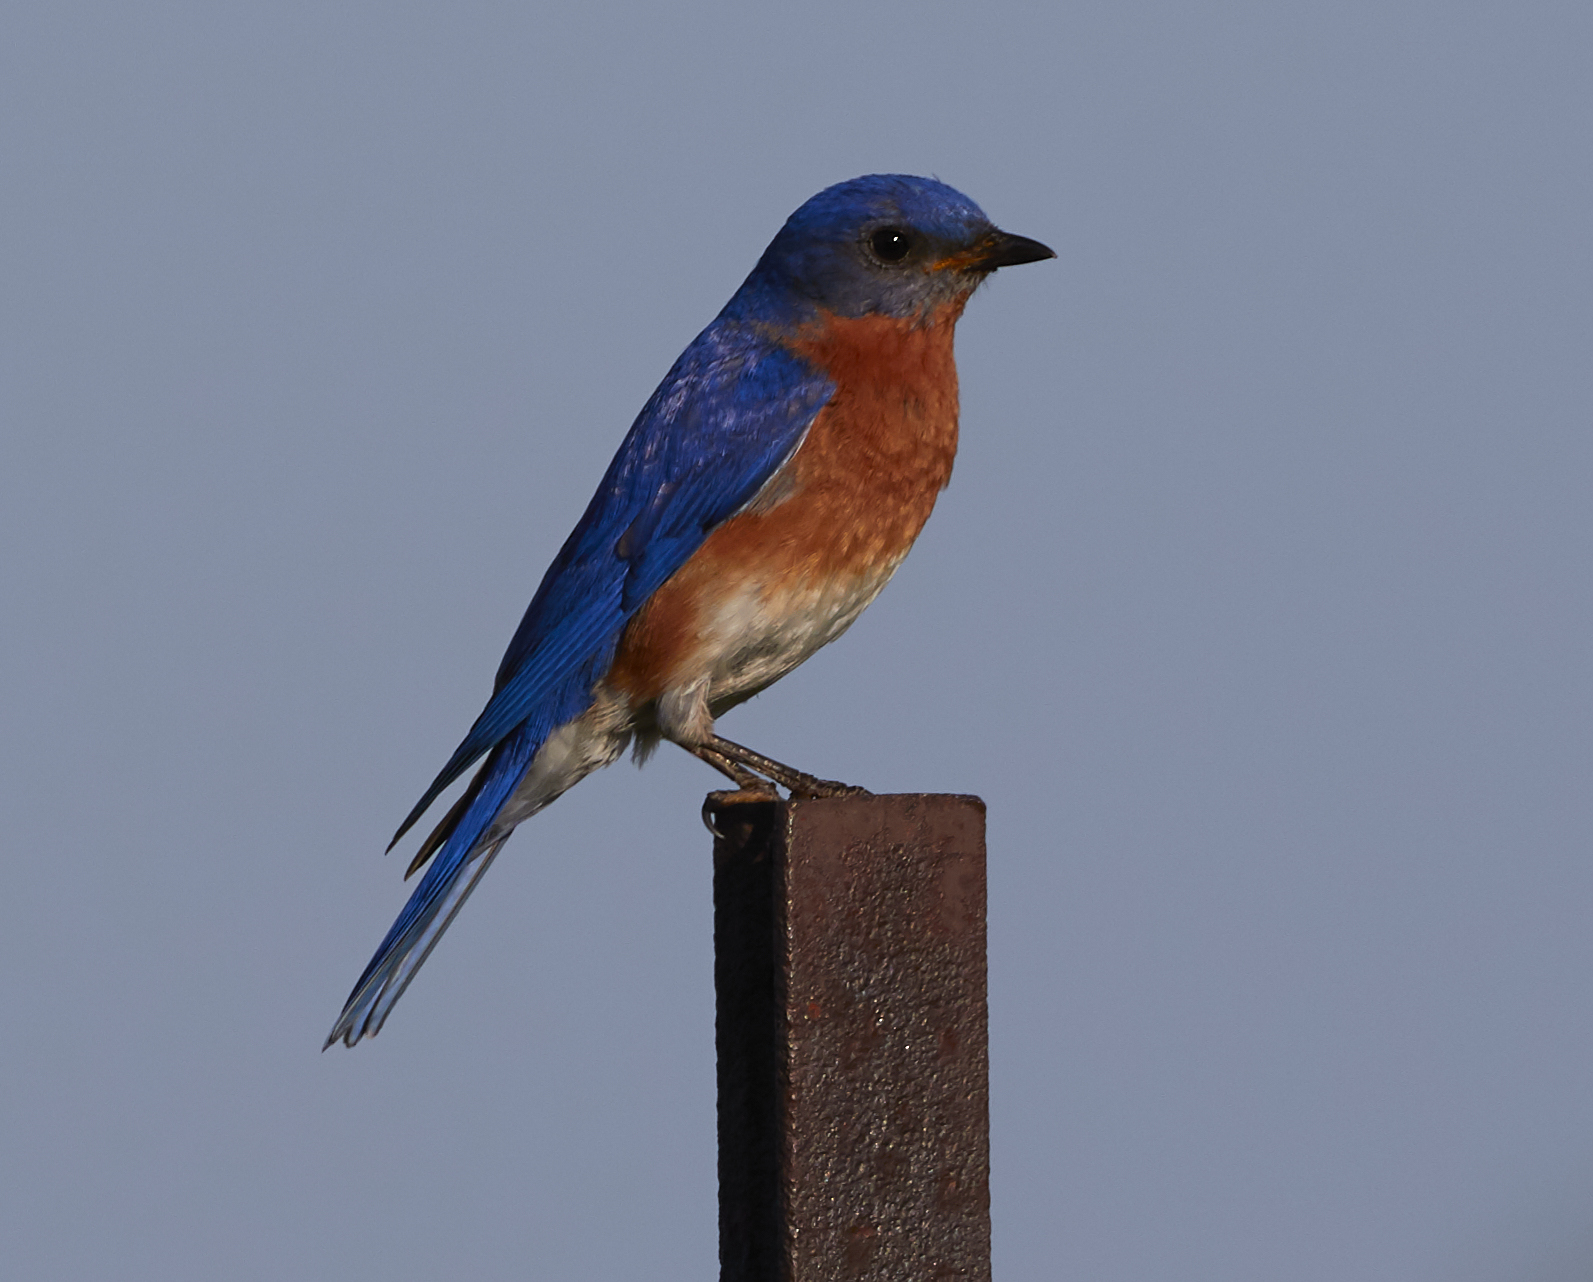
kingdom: Animalia
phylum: Chordata
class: Aves
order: Passeriformes
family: Turdidae
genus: Sialia
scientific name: Sialia sialis
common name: Eastern bluebird
